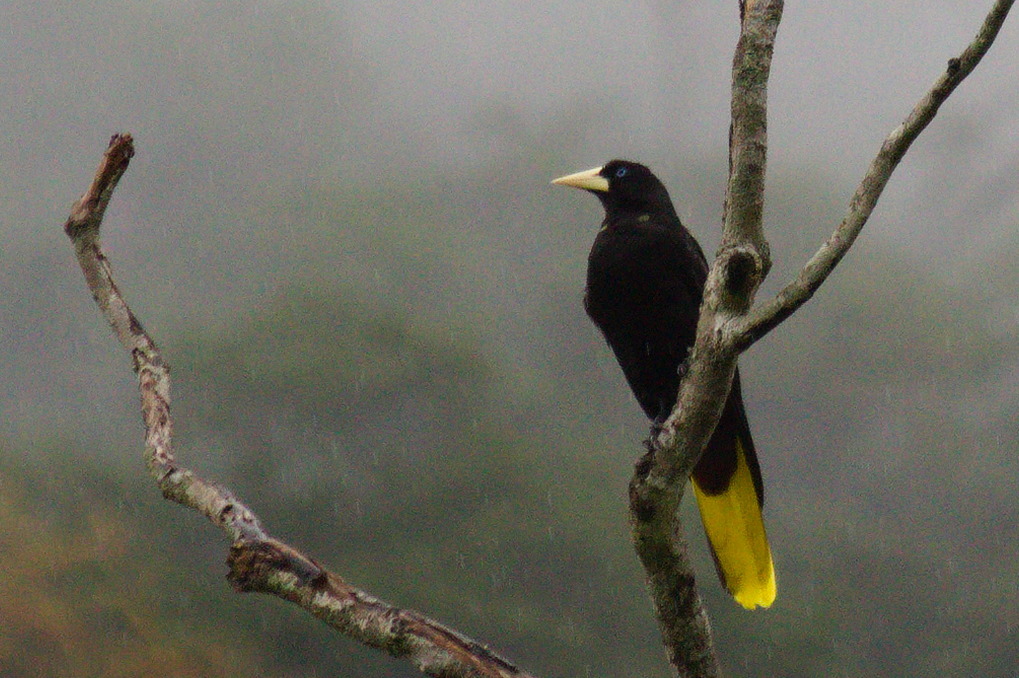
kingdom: Animalia
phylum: Chordata
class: Aves
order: Passeriformes
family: Icteridae
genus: Psarocolius
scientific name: Psarocolius decumanus
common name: Crested oropendola
